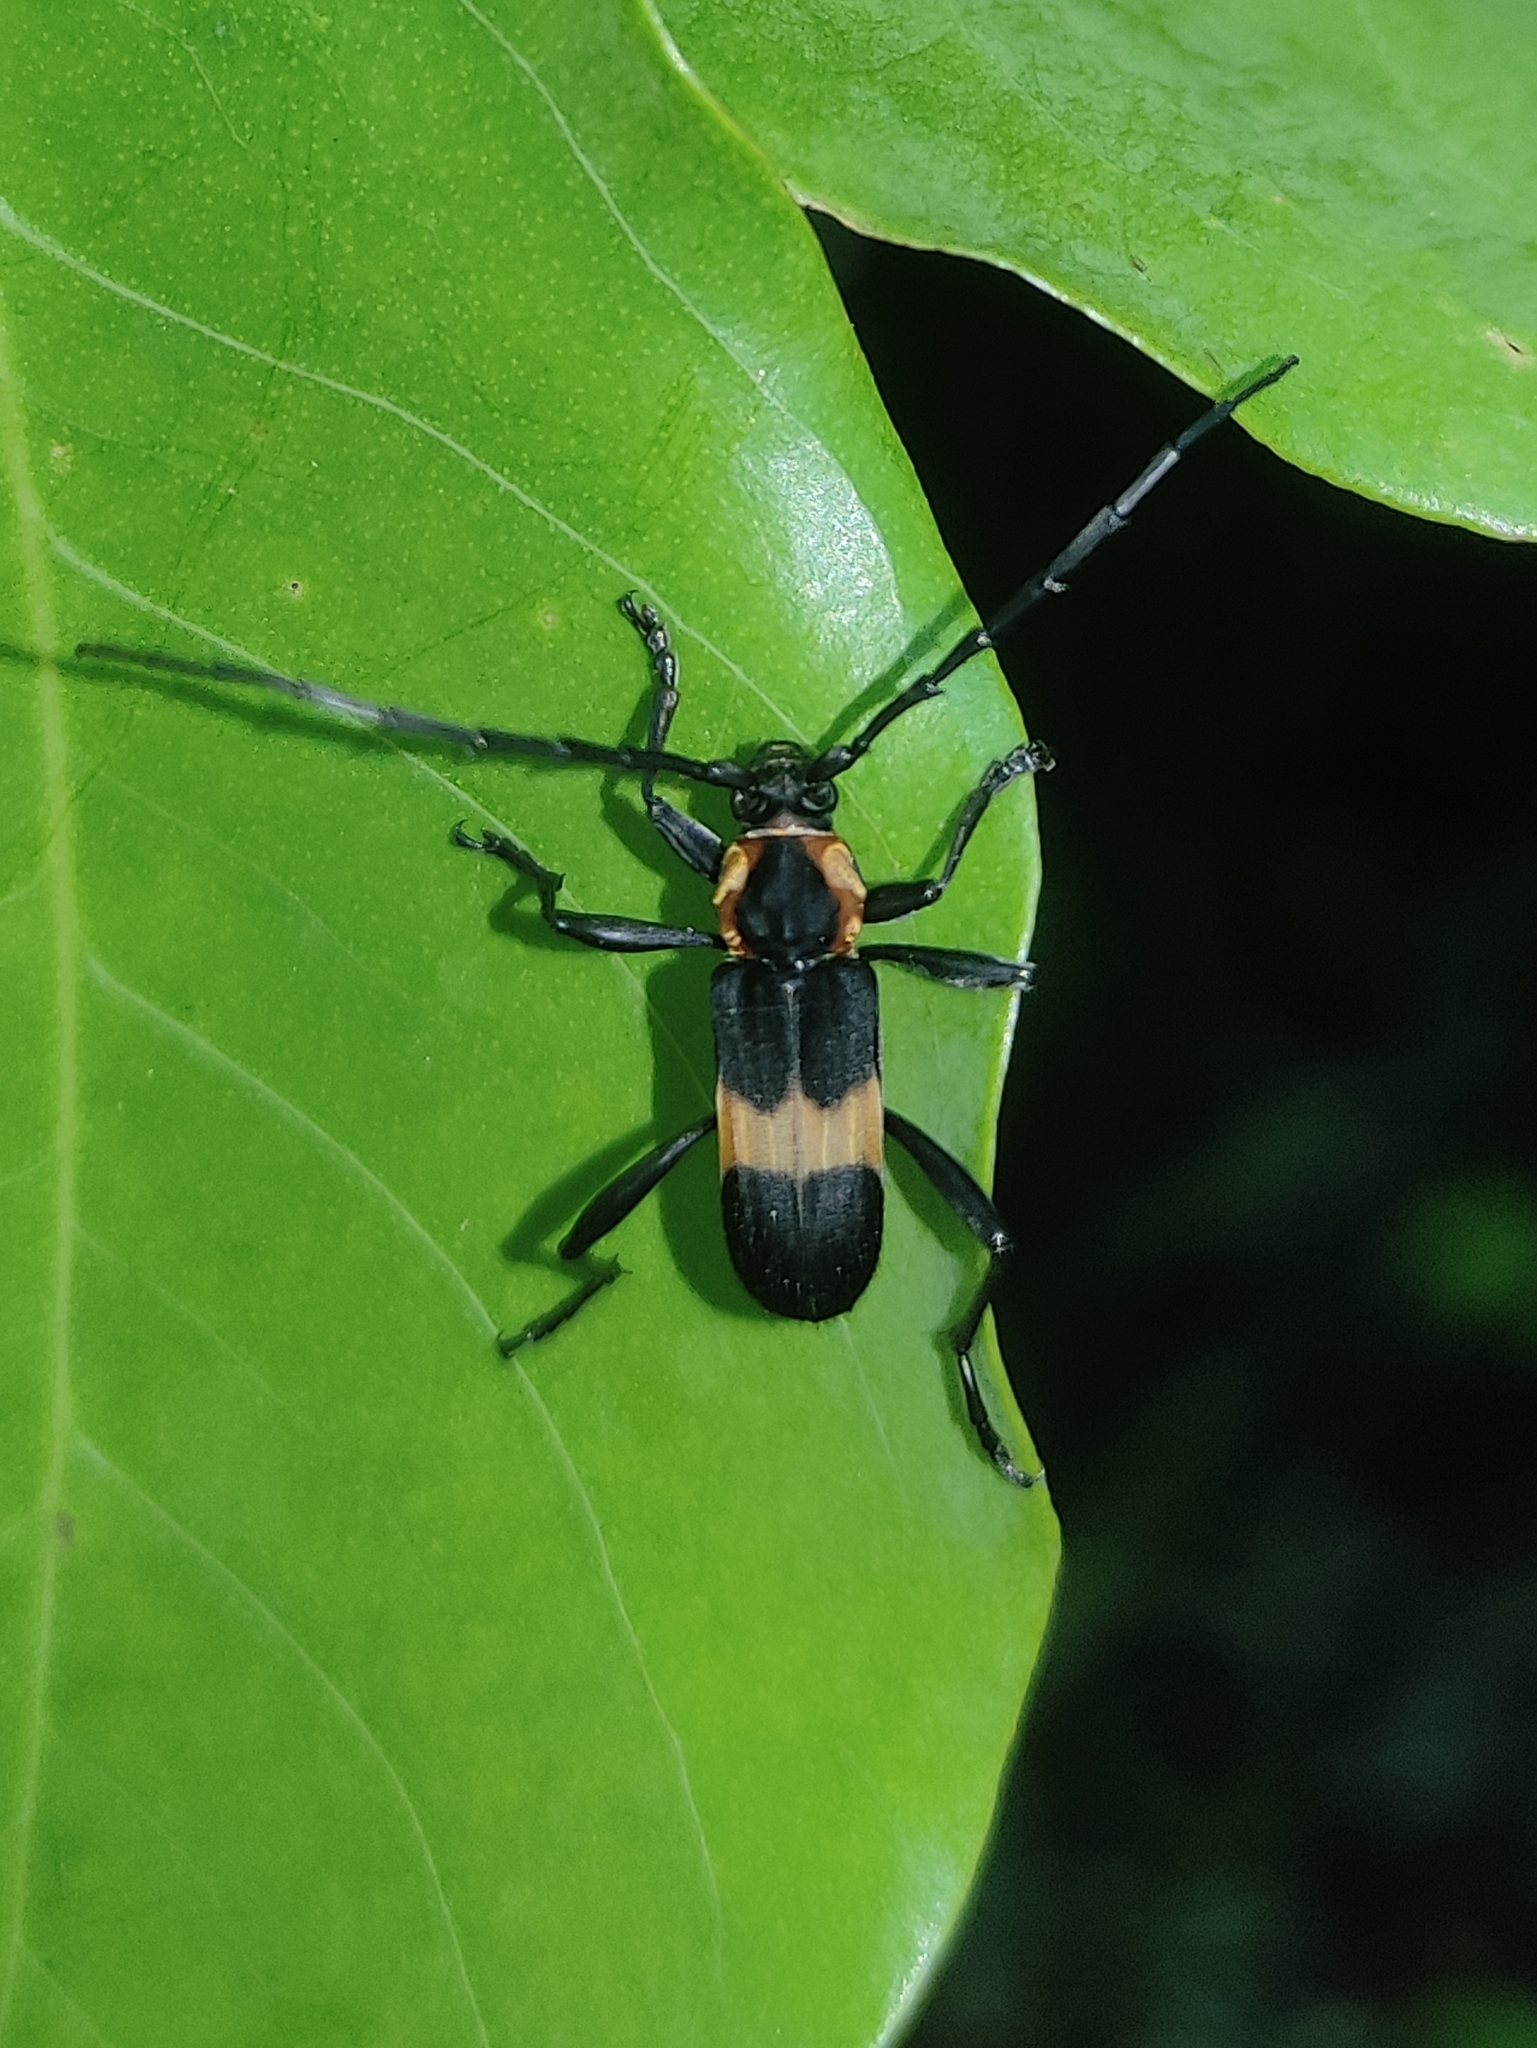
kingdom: Animalia
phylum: Arthropoda
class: Insecta
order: Coleoptera
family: Cerambycidae
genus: Mallosoma
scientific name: Mallosoma zonatum
